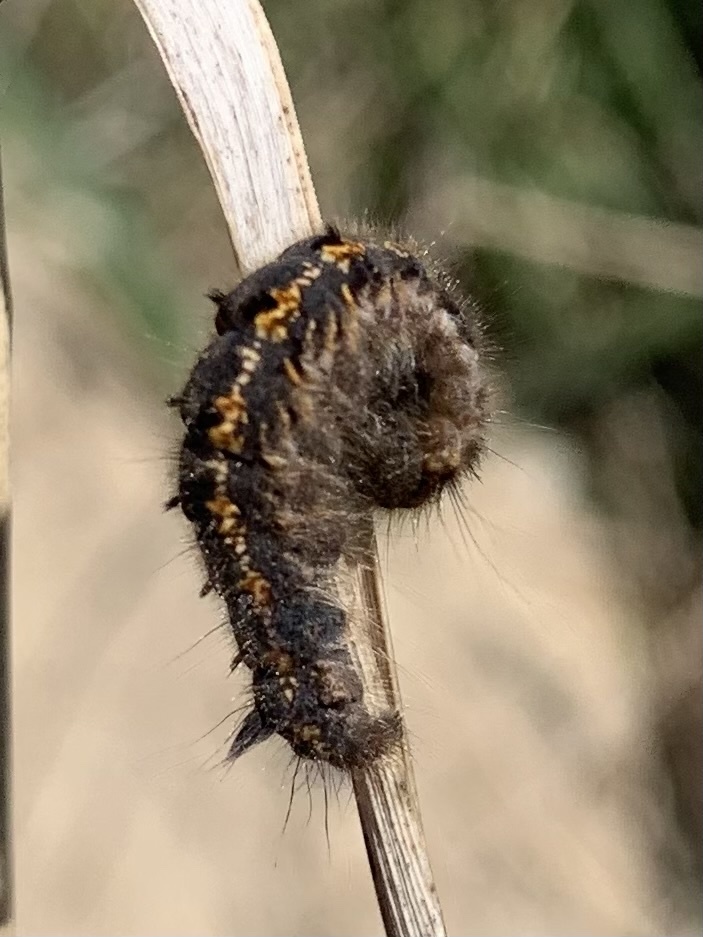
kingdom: Animalia
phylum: Arthropoda
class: Insecta
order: Lepidoptera
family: Lasiocampidae
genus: Euthrix
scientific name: Euthrix potatoria
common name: Drinker
